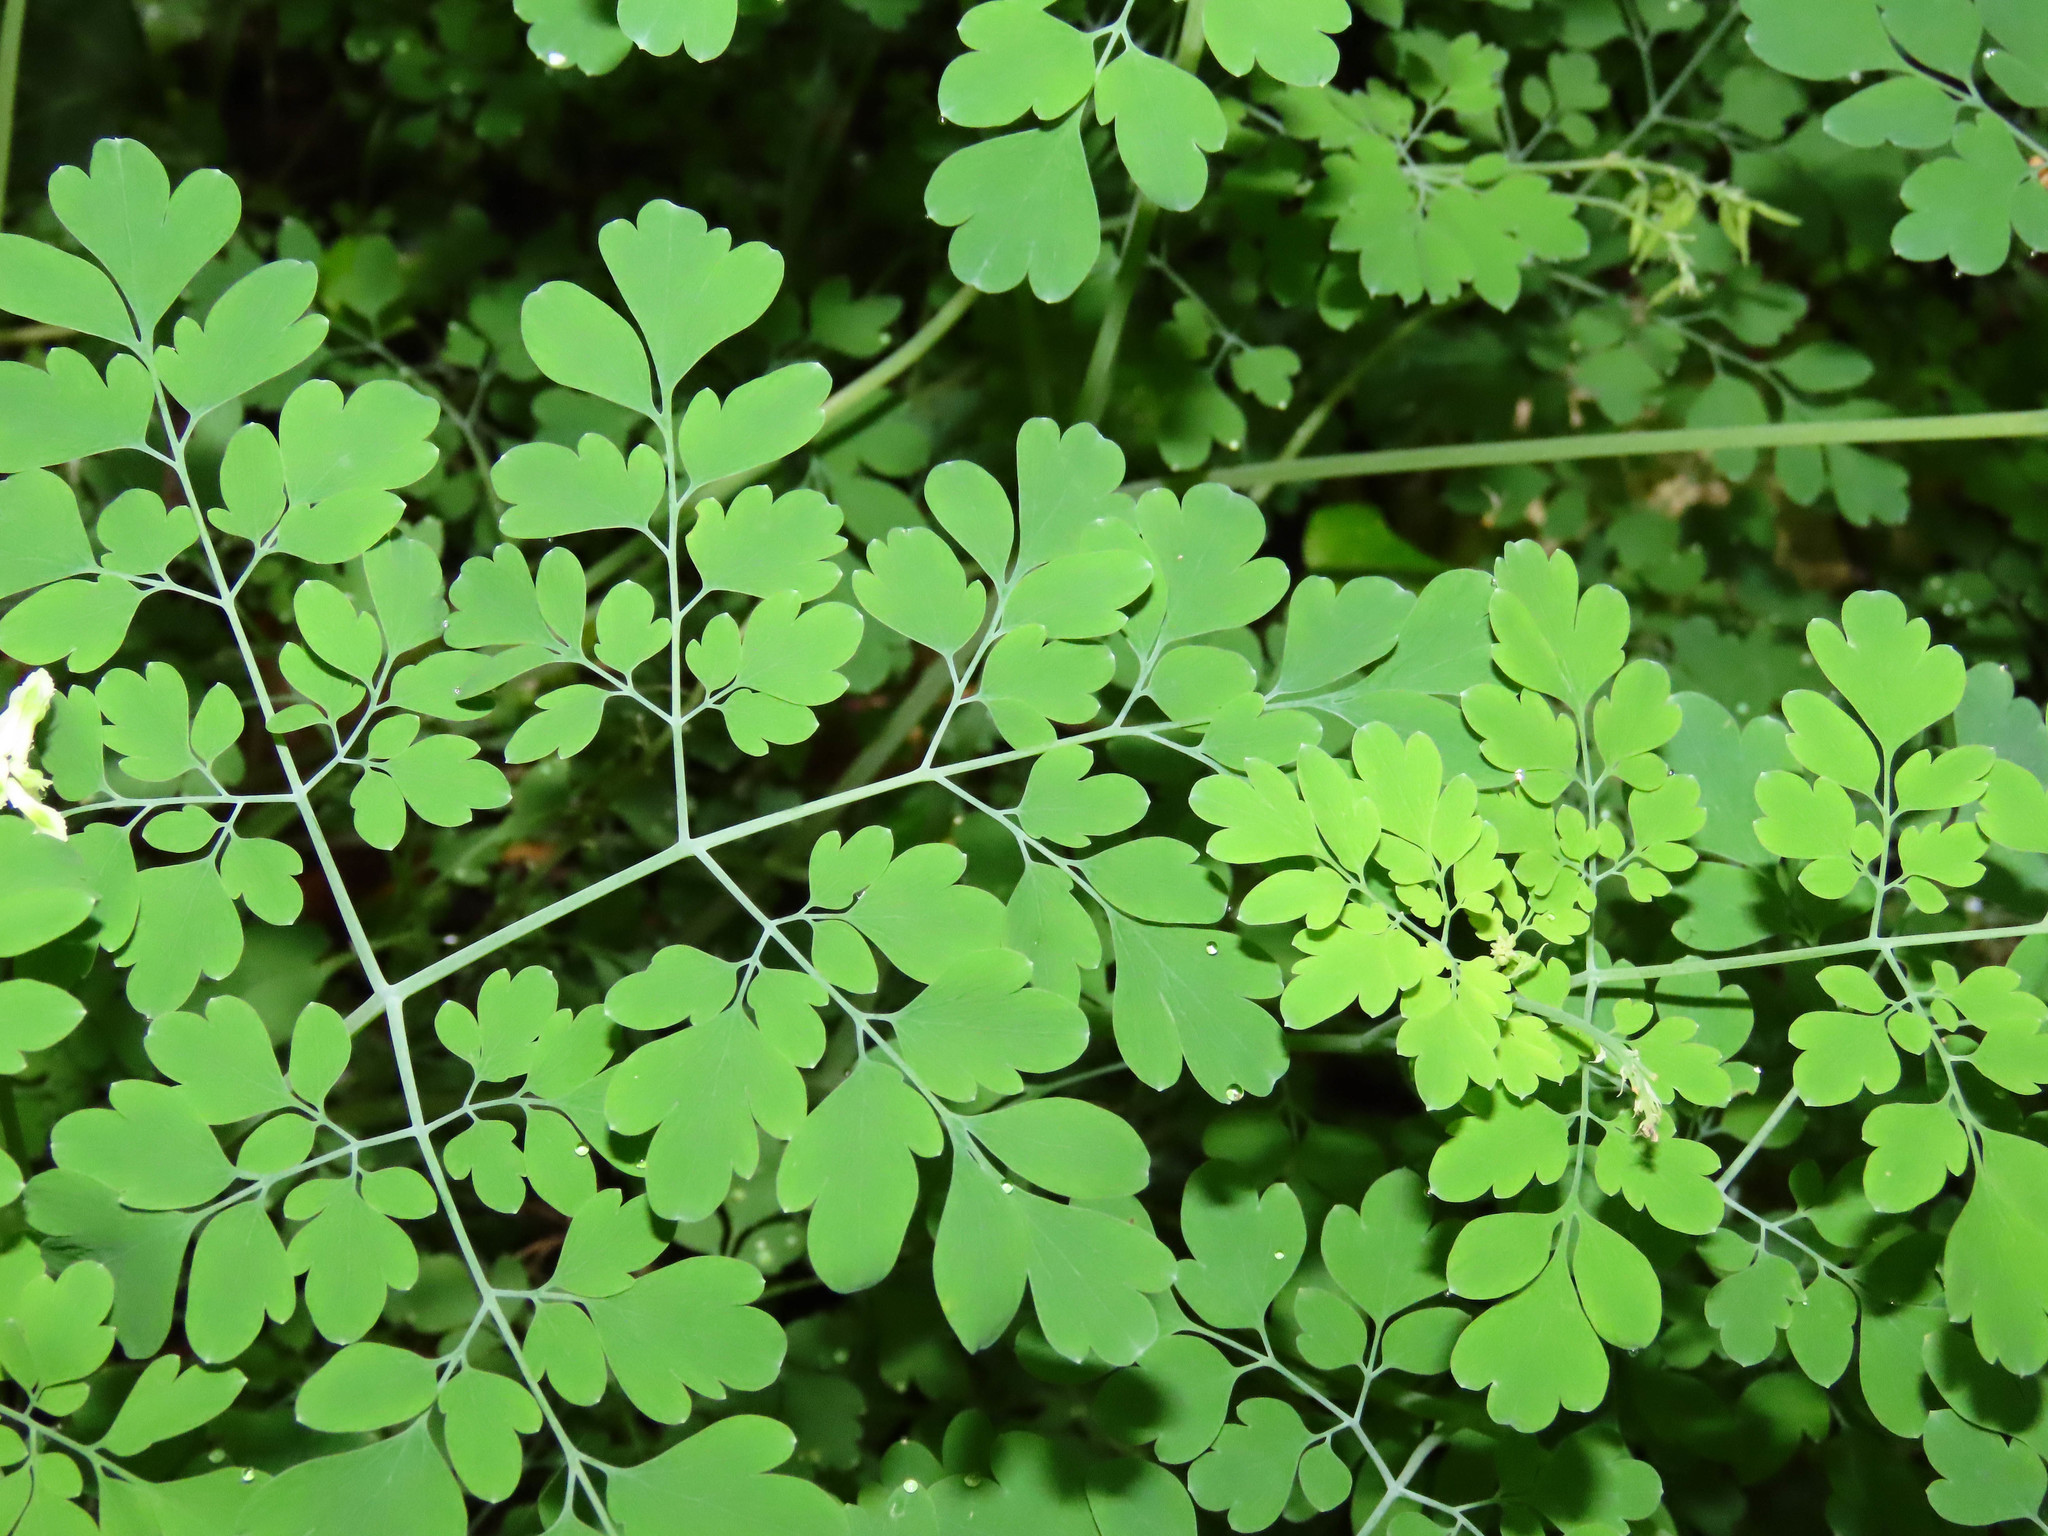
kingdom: Plantae
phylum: Tracheophyta
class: Magnoliopsida
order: Ranunculales
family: Papaveraceae
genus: Pseudofumaria
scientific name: Pseudofumaria alba
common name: Pale corydalis
